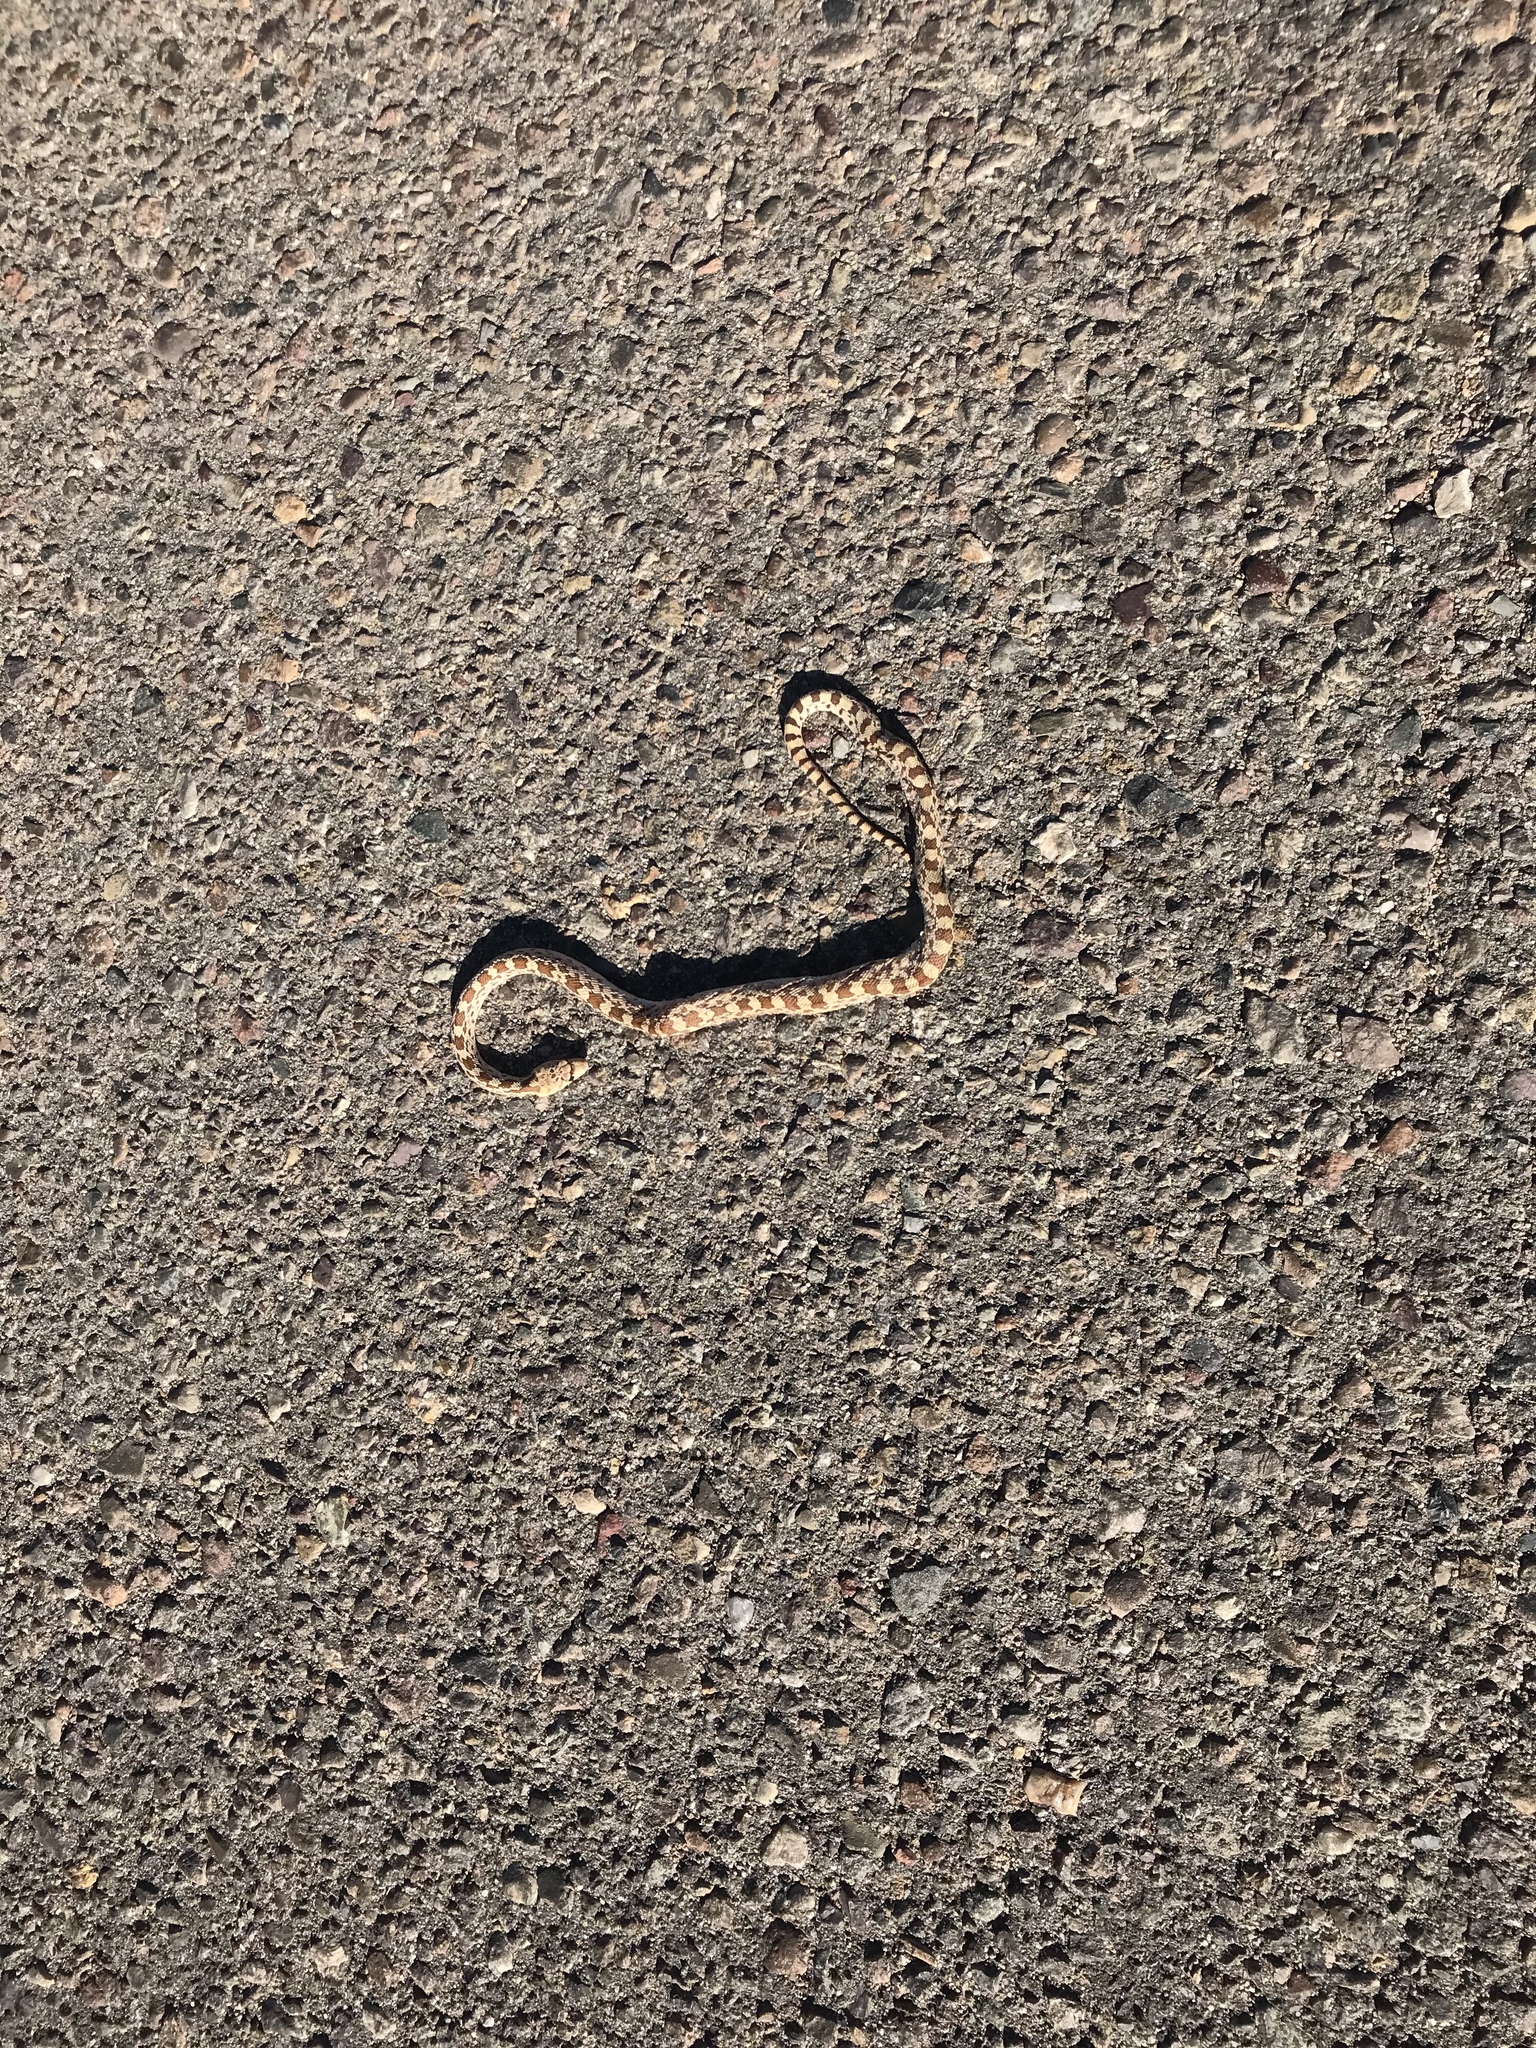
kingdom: Animalia
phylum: Chordata
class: Squamata
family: Colubridae
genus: Pituophis
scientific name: Pituophis catenifer
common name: Gopher snake
